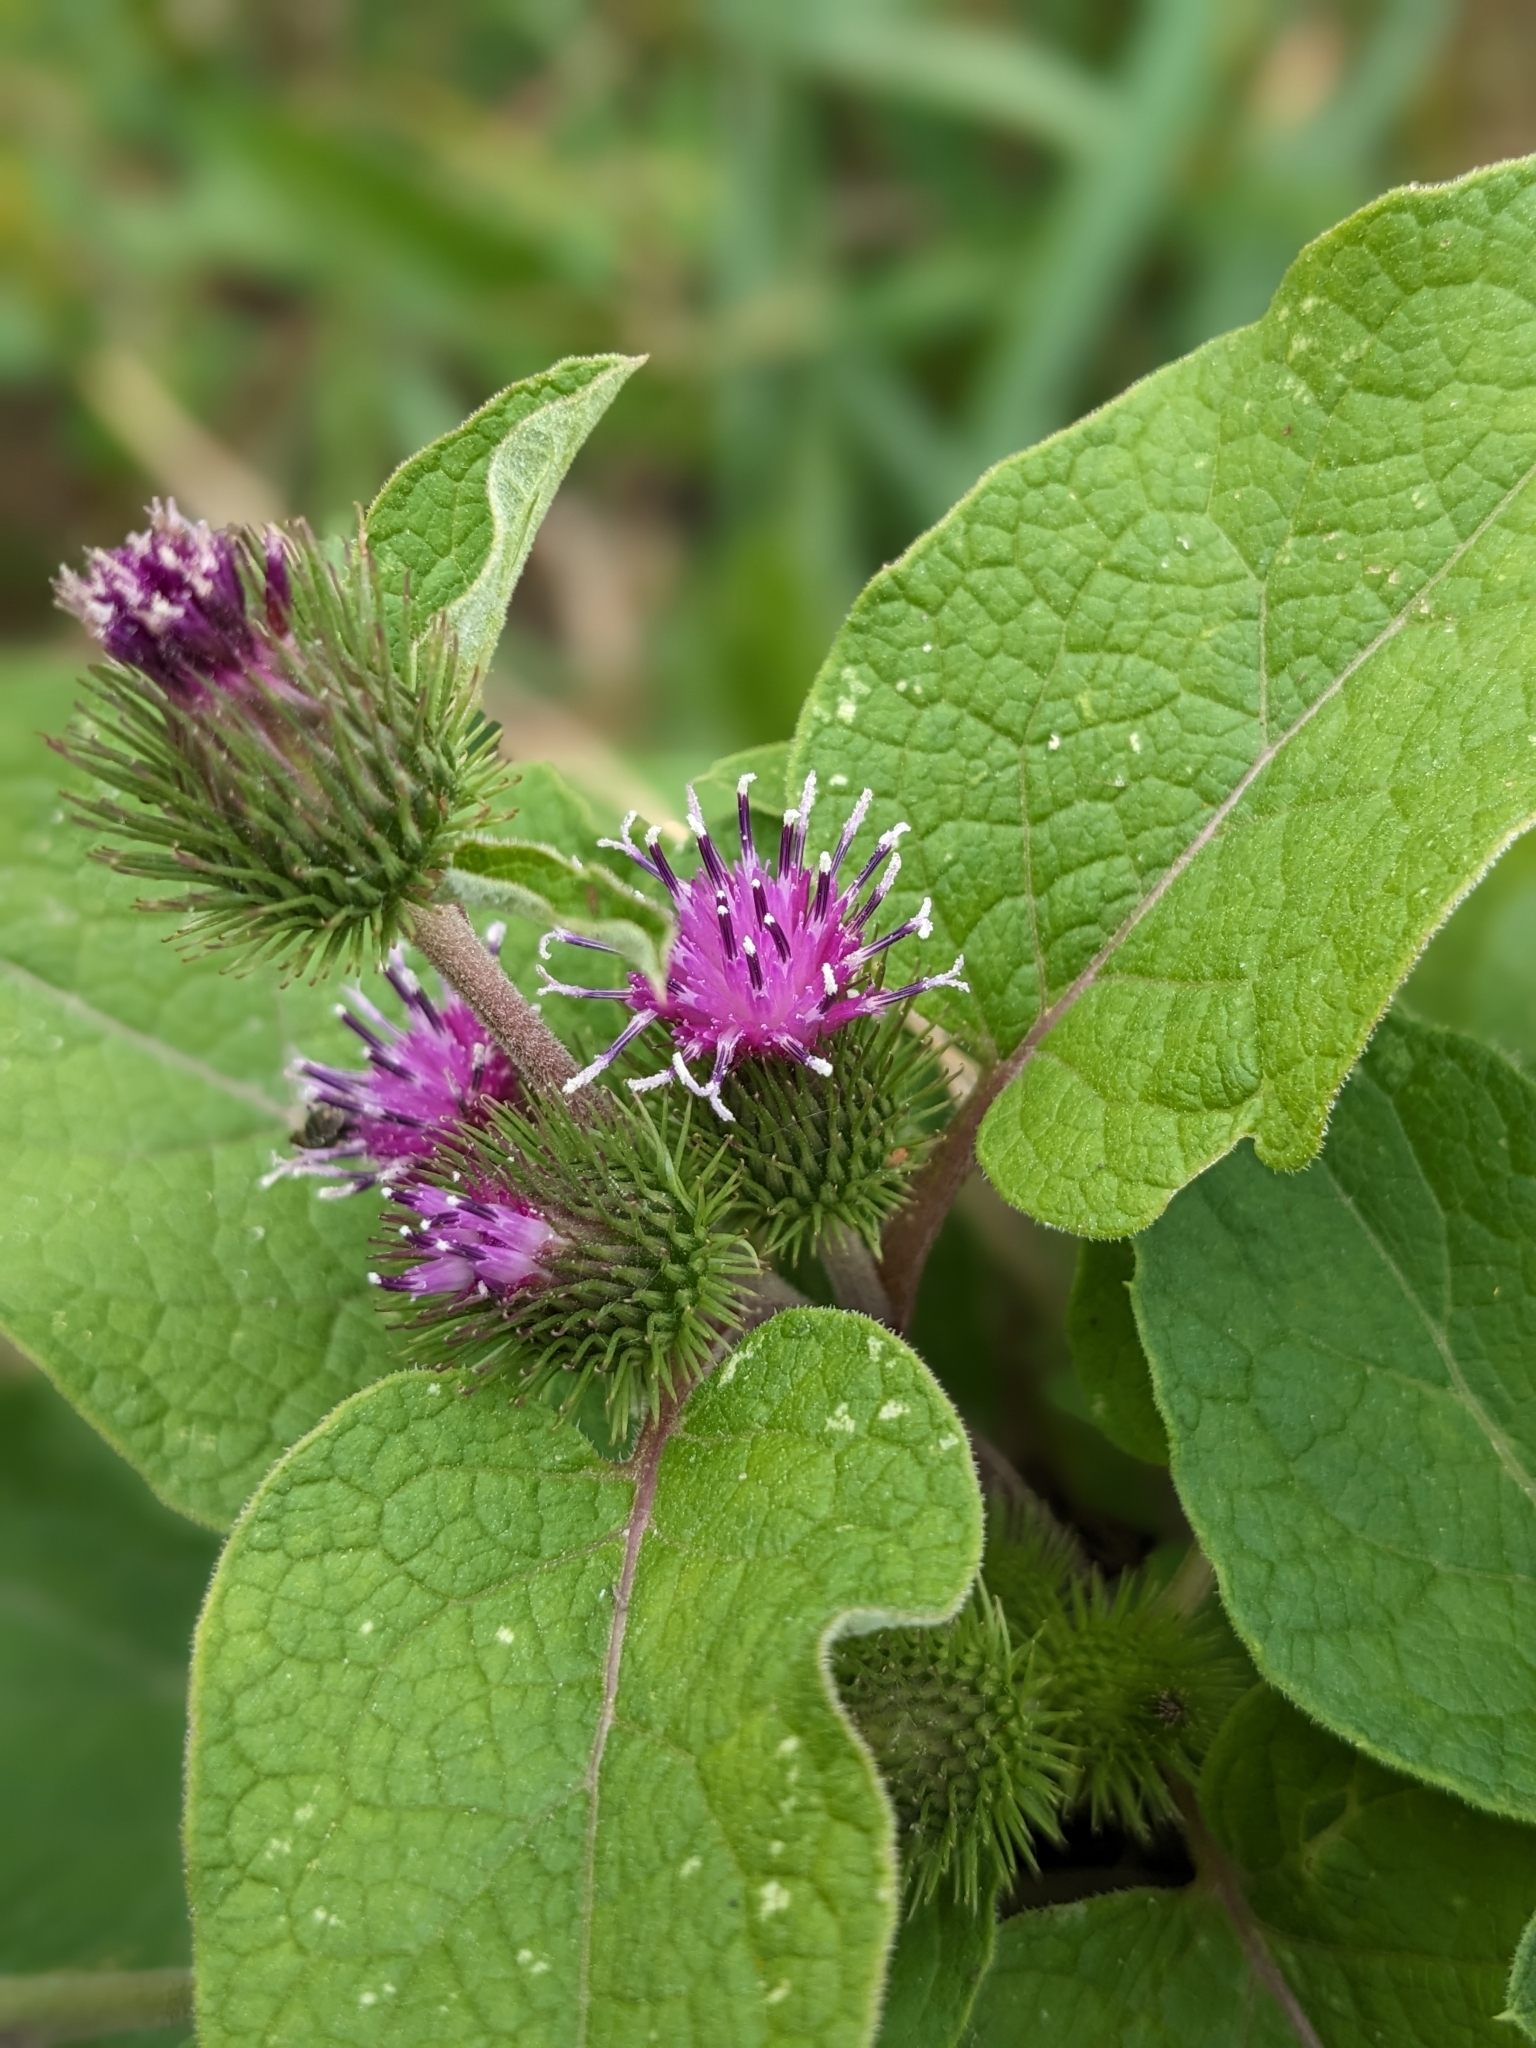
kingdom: Plantae
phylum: Tracheophyta
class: Magnoliopsida
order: Asterales
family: Asteraceae
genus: Arctium
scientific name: Arctium minus
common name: Lesser burdock
